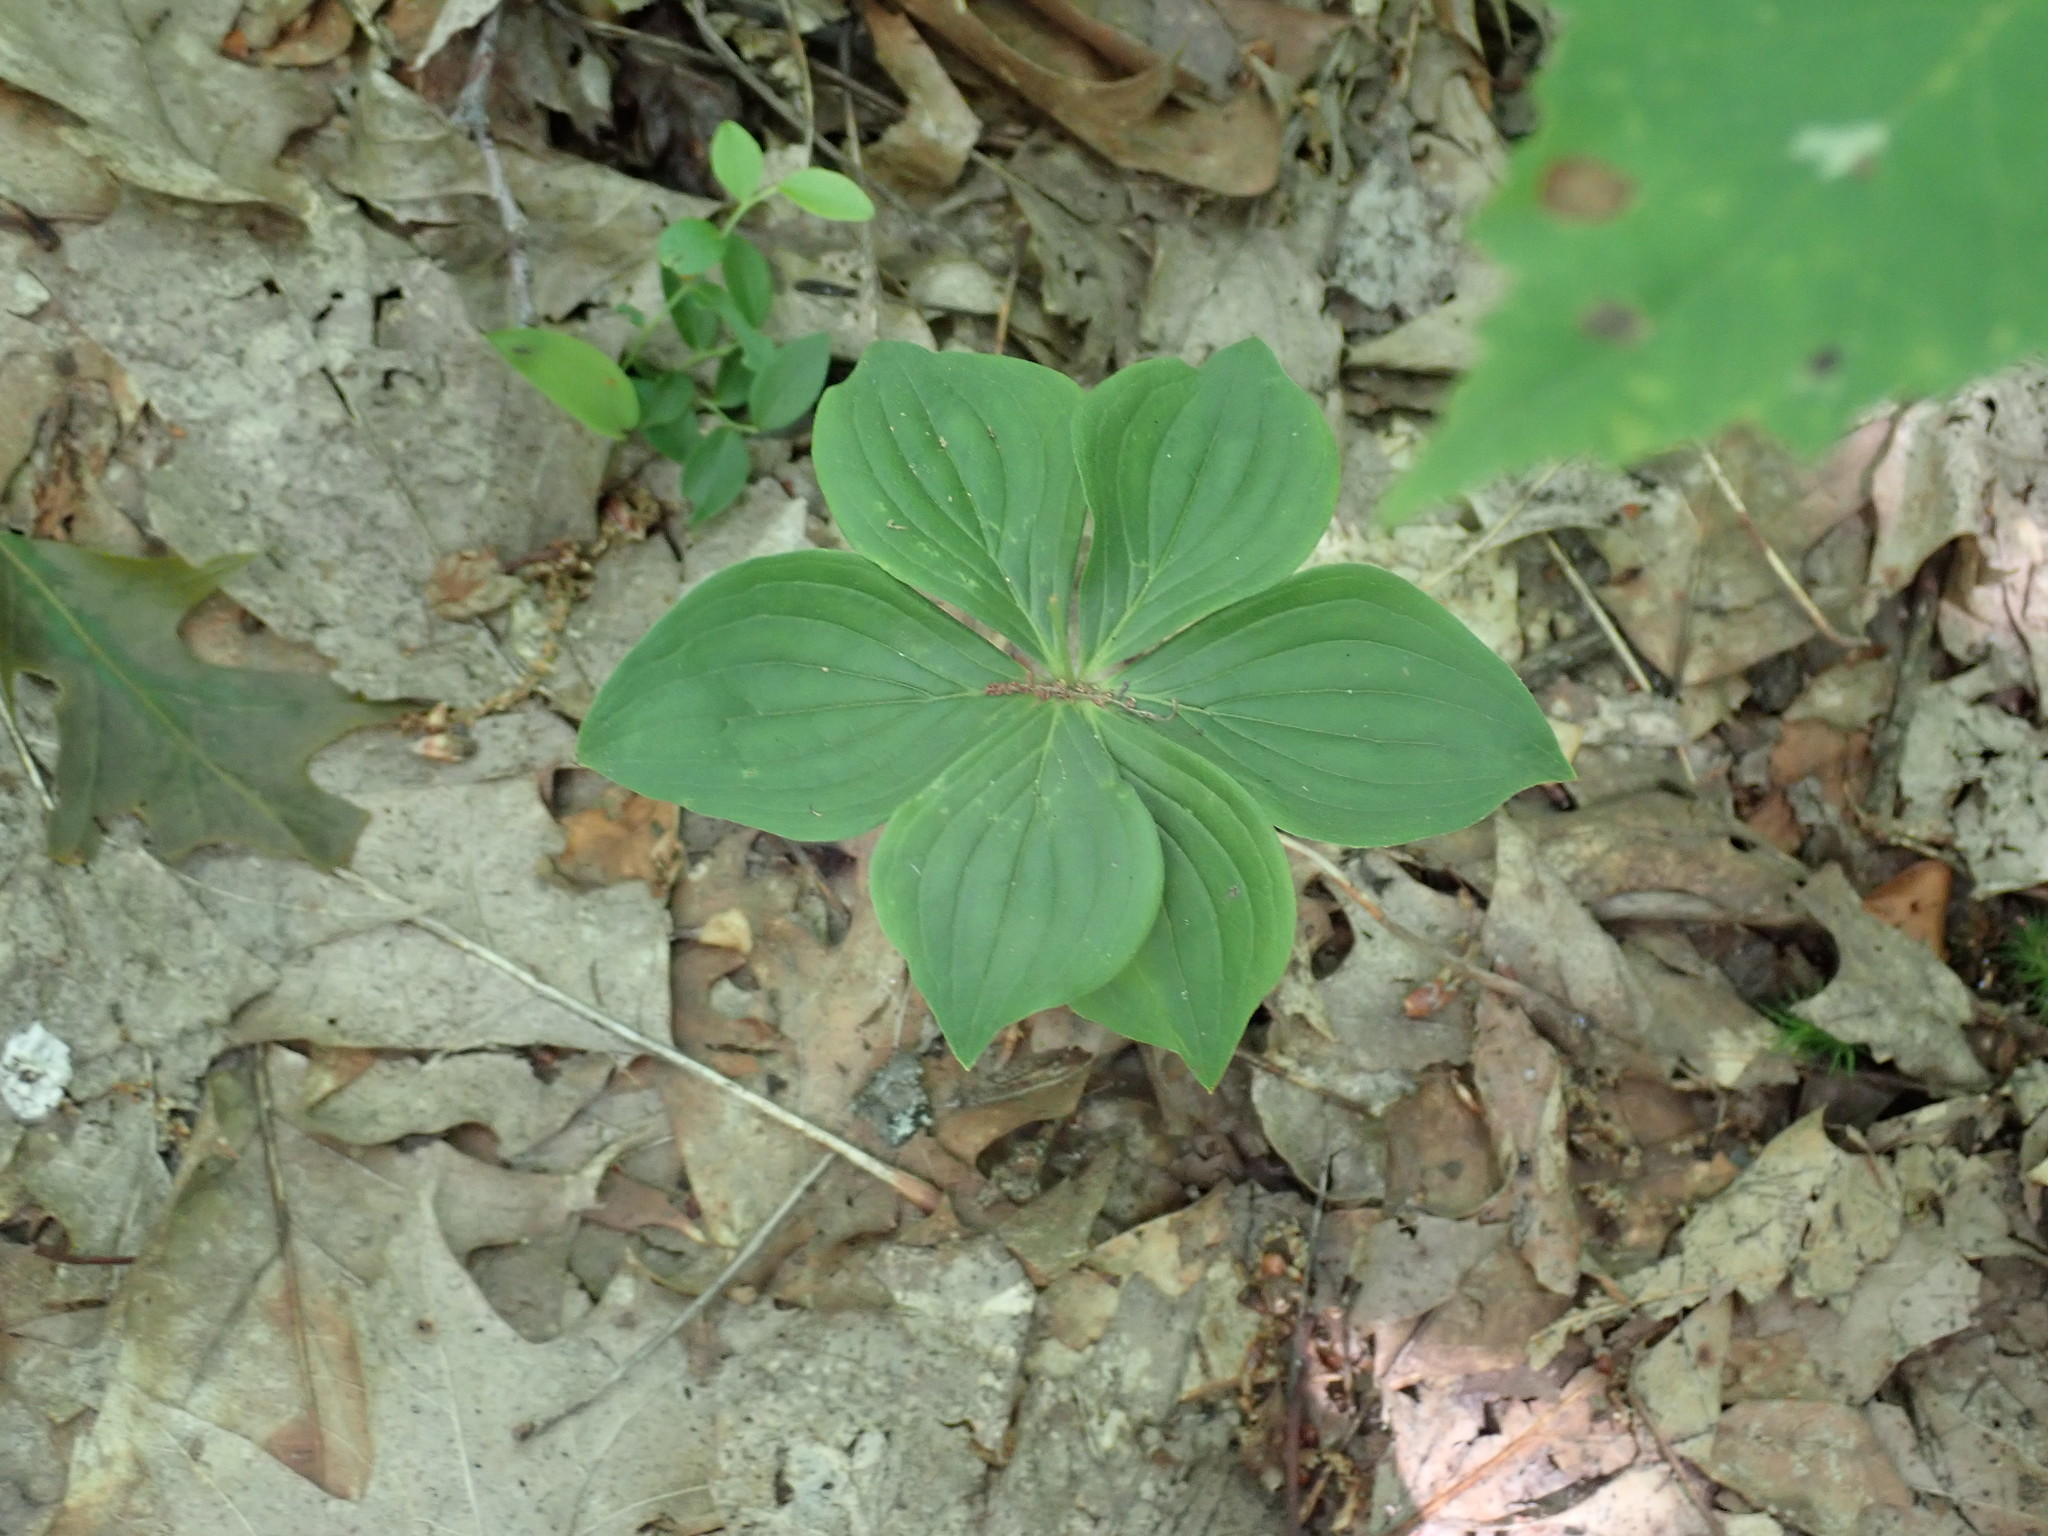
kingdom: Plantae
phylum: Tracheophyta
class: Magnoliopsida
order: Cornales
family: Cornaceae
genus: Cornus
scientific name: Cornus canadensis
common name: Creeping dogwood
